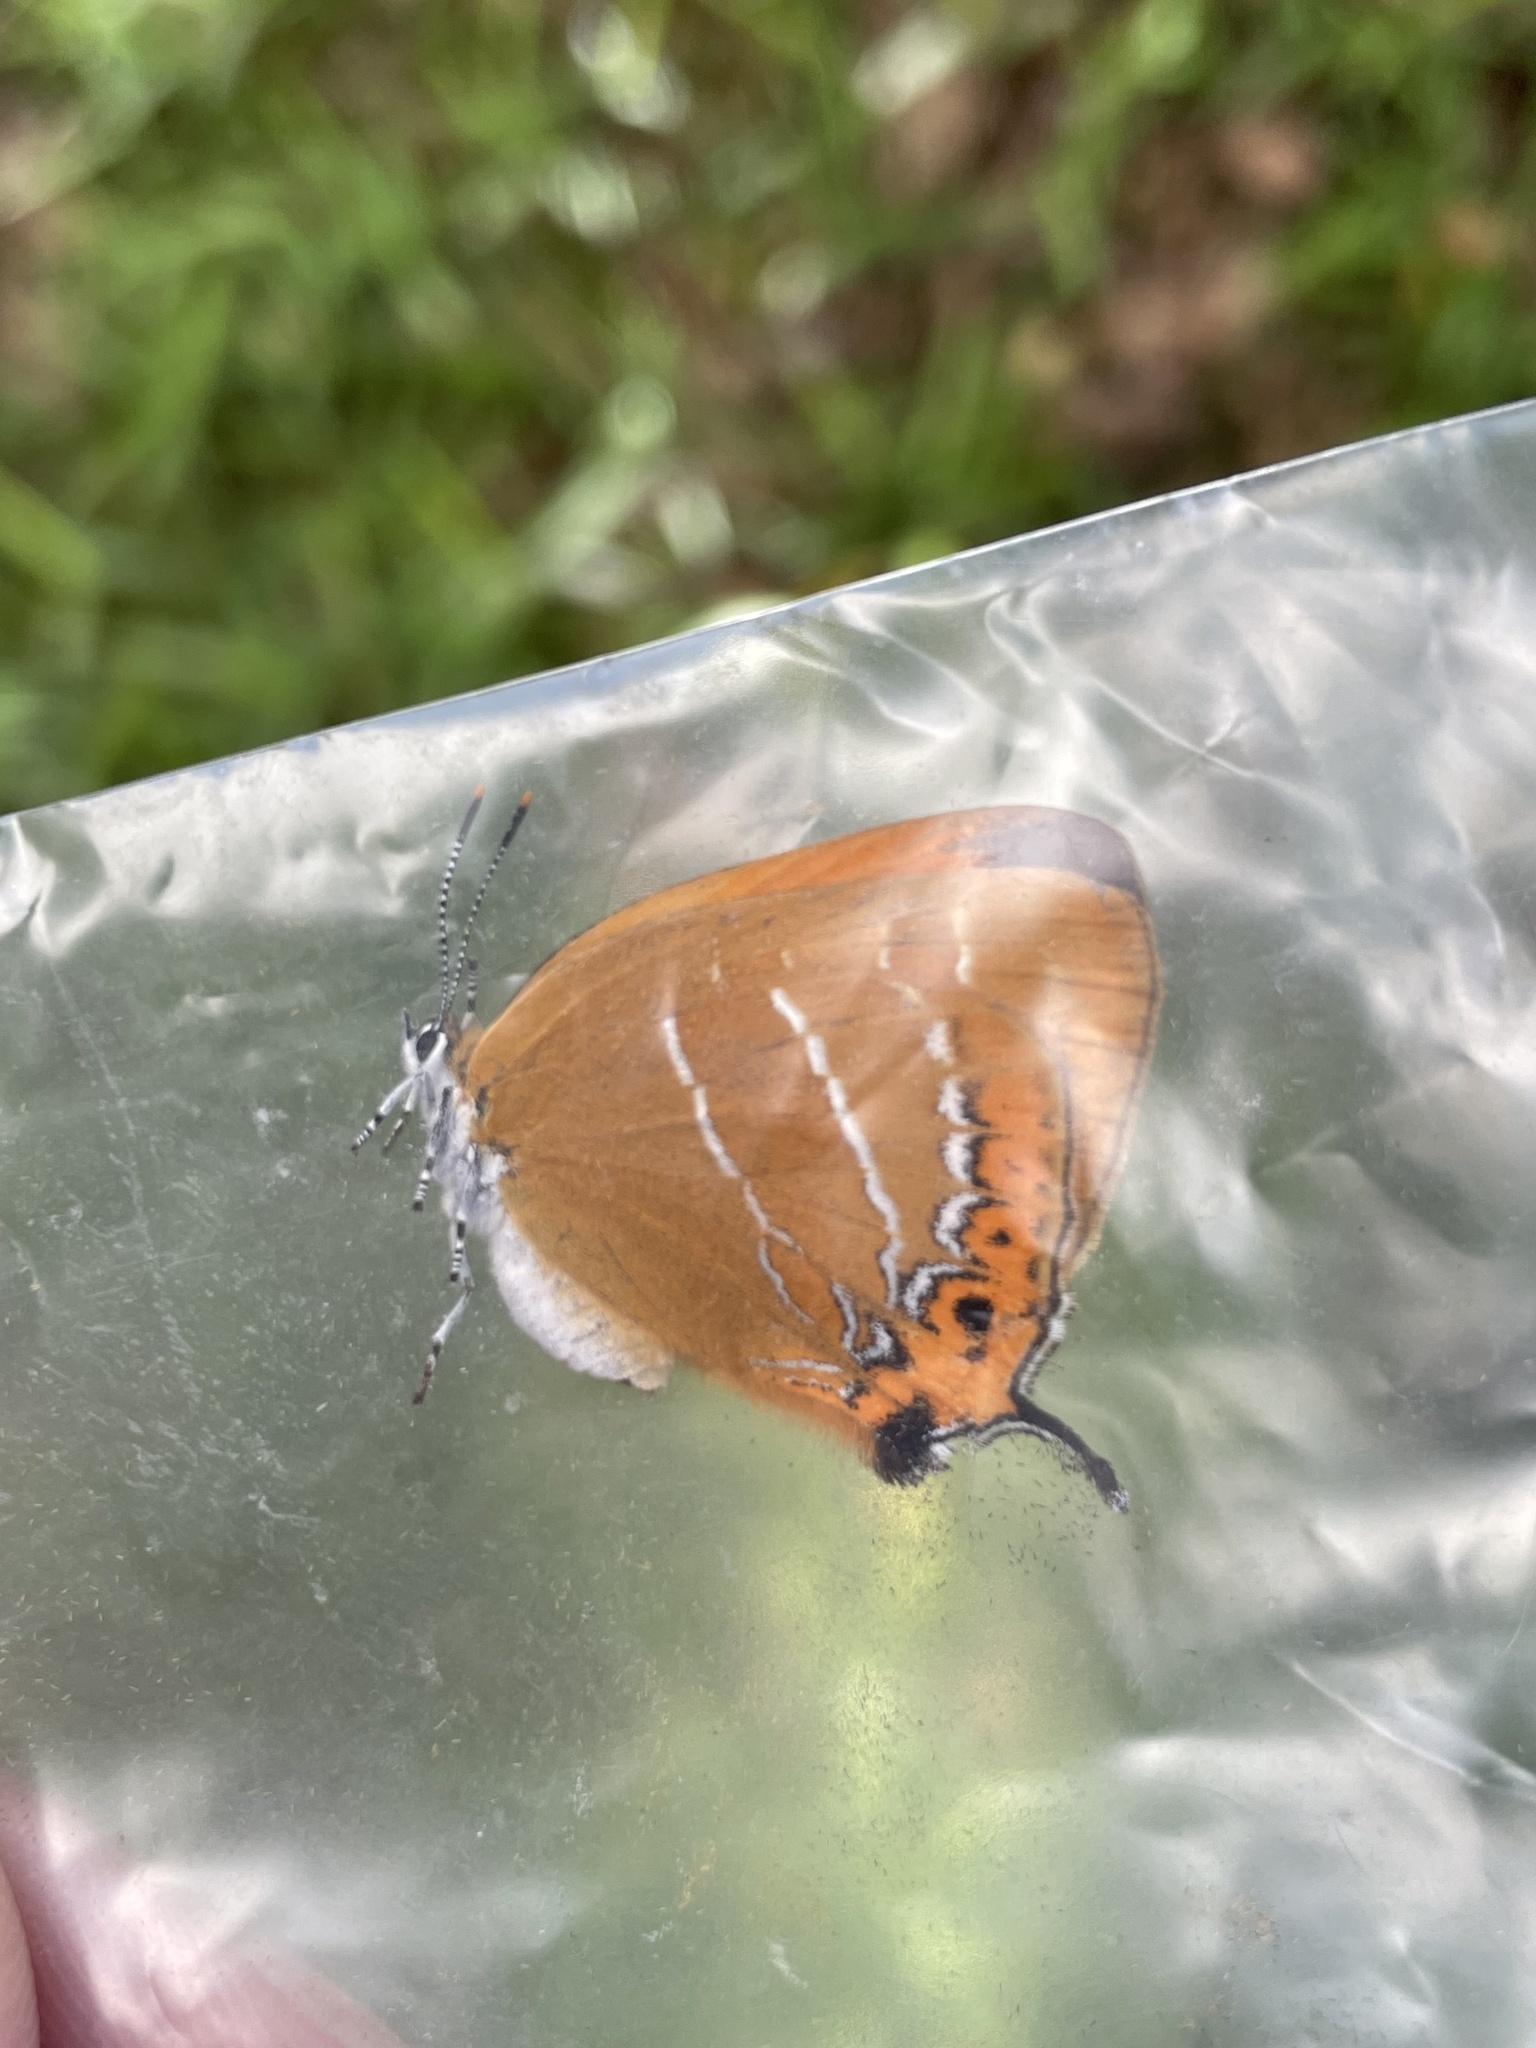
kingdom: Animalia
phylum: Arthropoda
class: Insecta
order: Lepidoptera
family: Lycaenidae
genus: Japonica
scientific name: Japonica lutea
